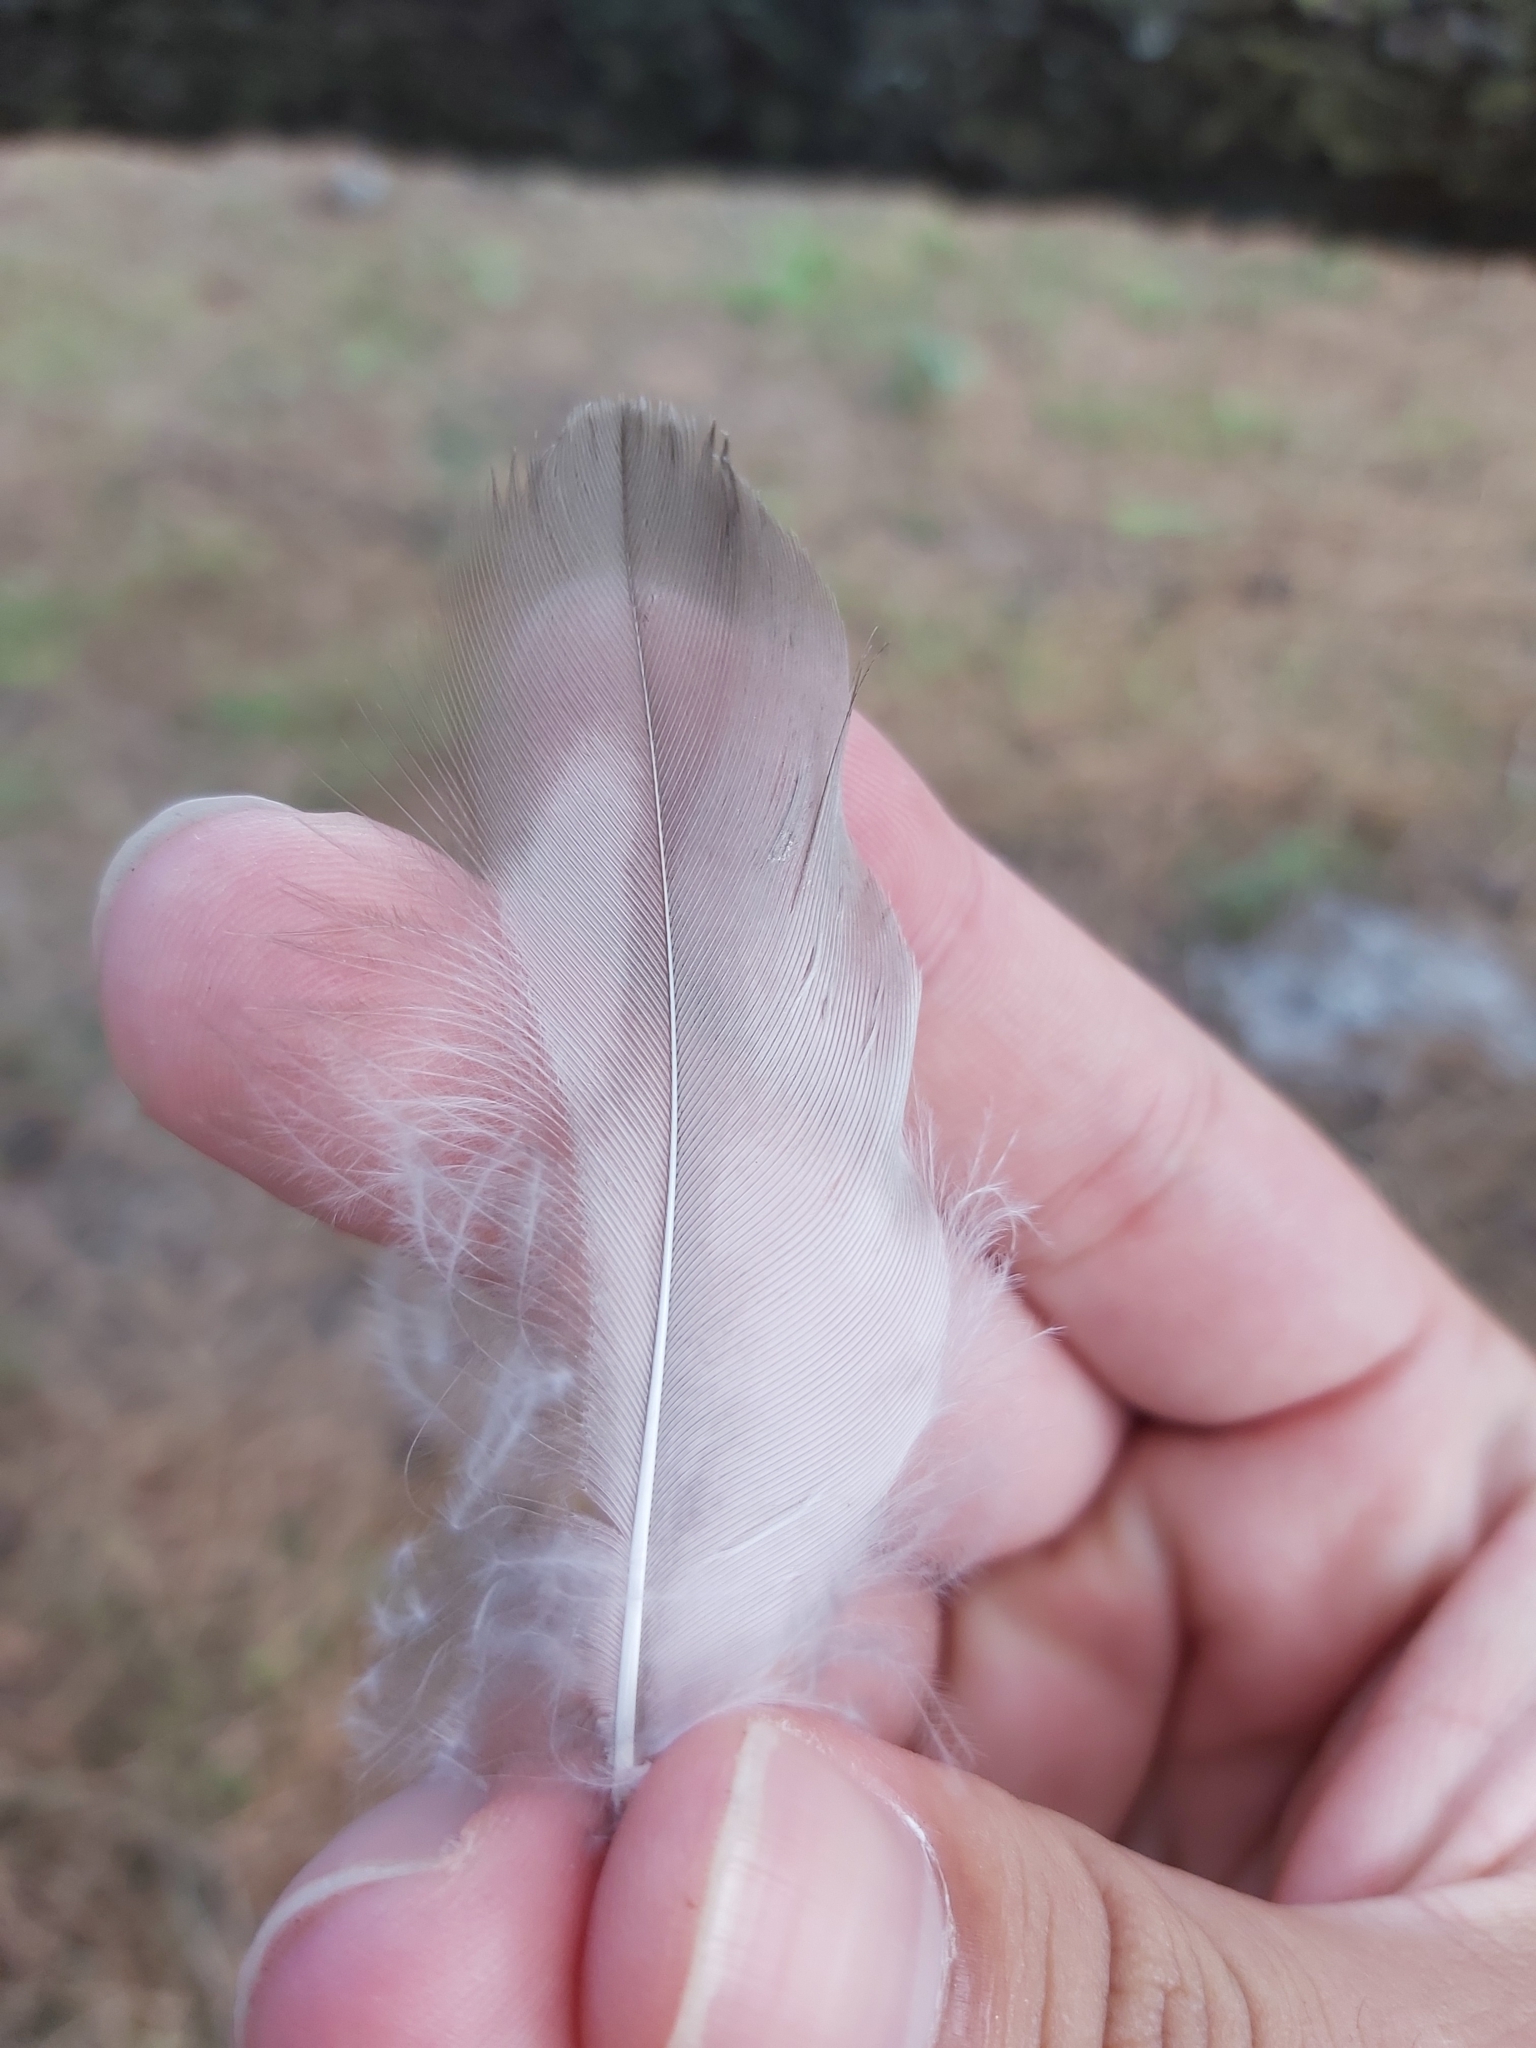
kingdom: Animalia
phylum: Chordata
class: Aves
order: Coraciiformes
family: Alcedinidae
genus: Dacelo
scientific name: Dacelo novaeguineae
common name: Laughing kookaburra
